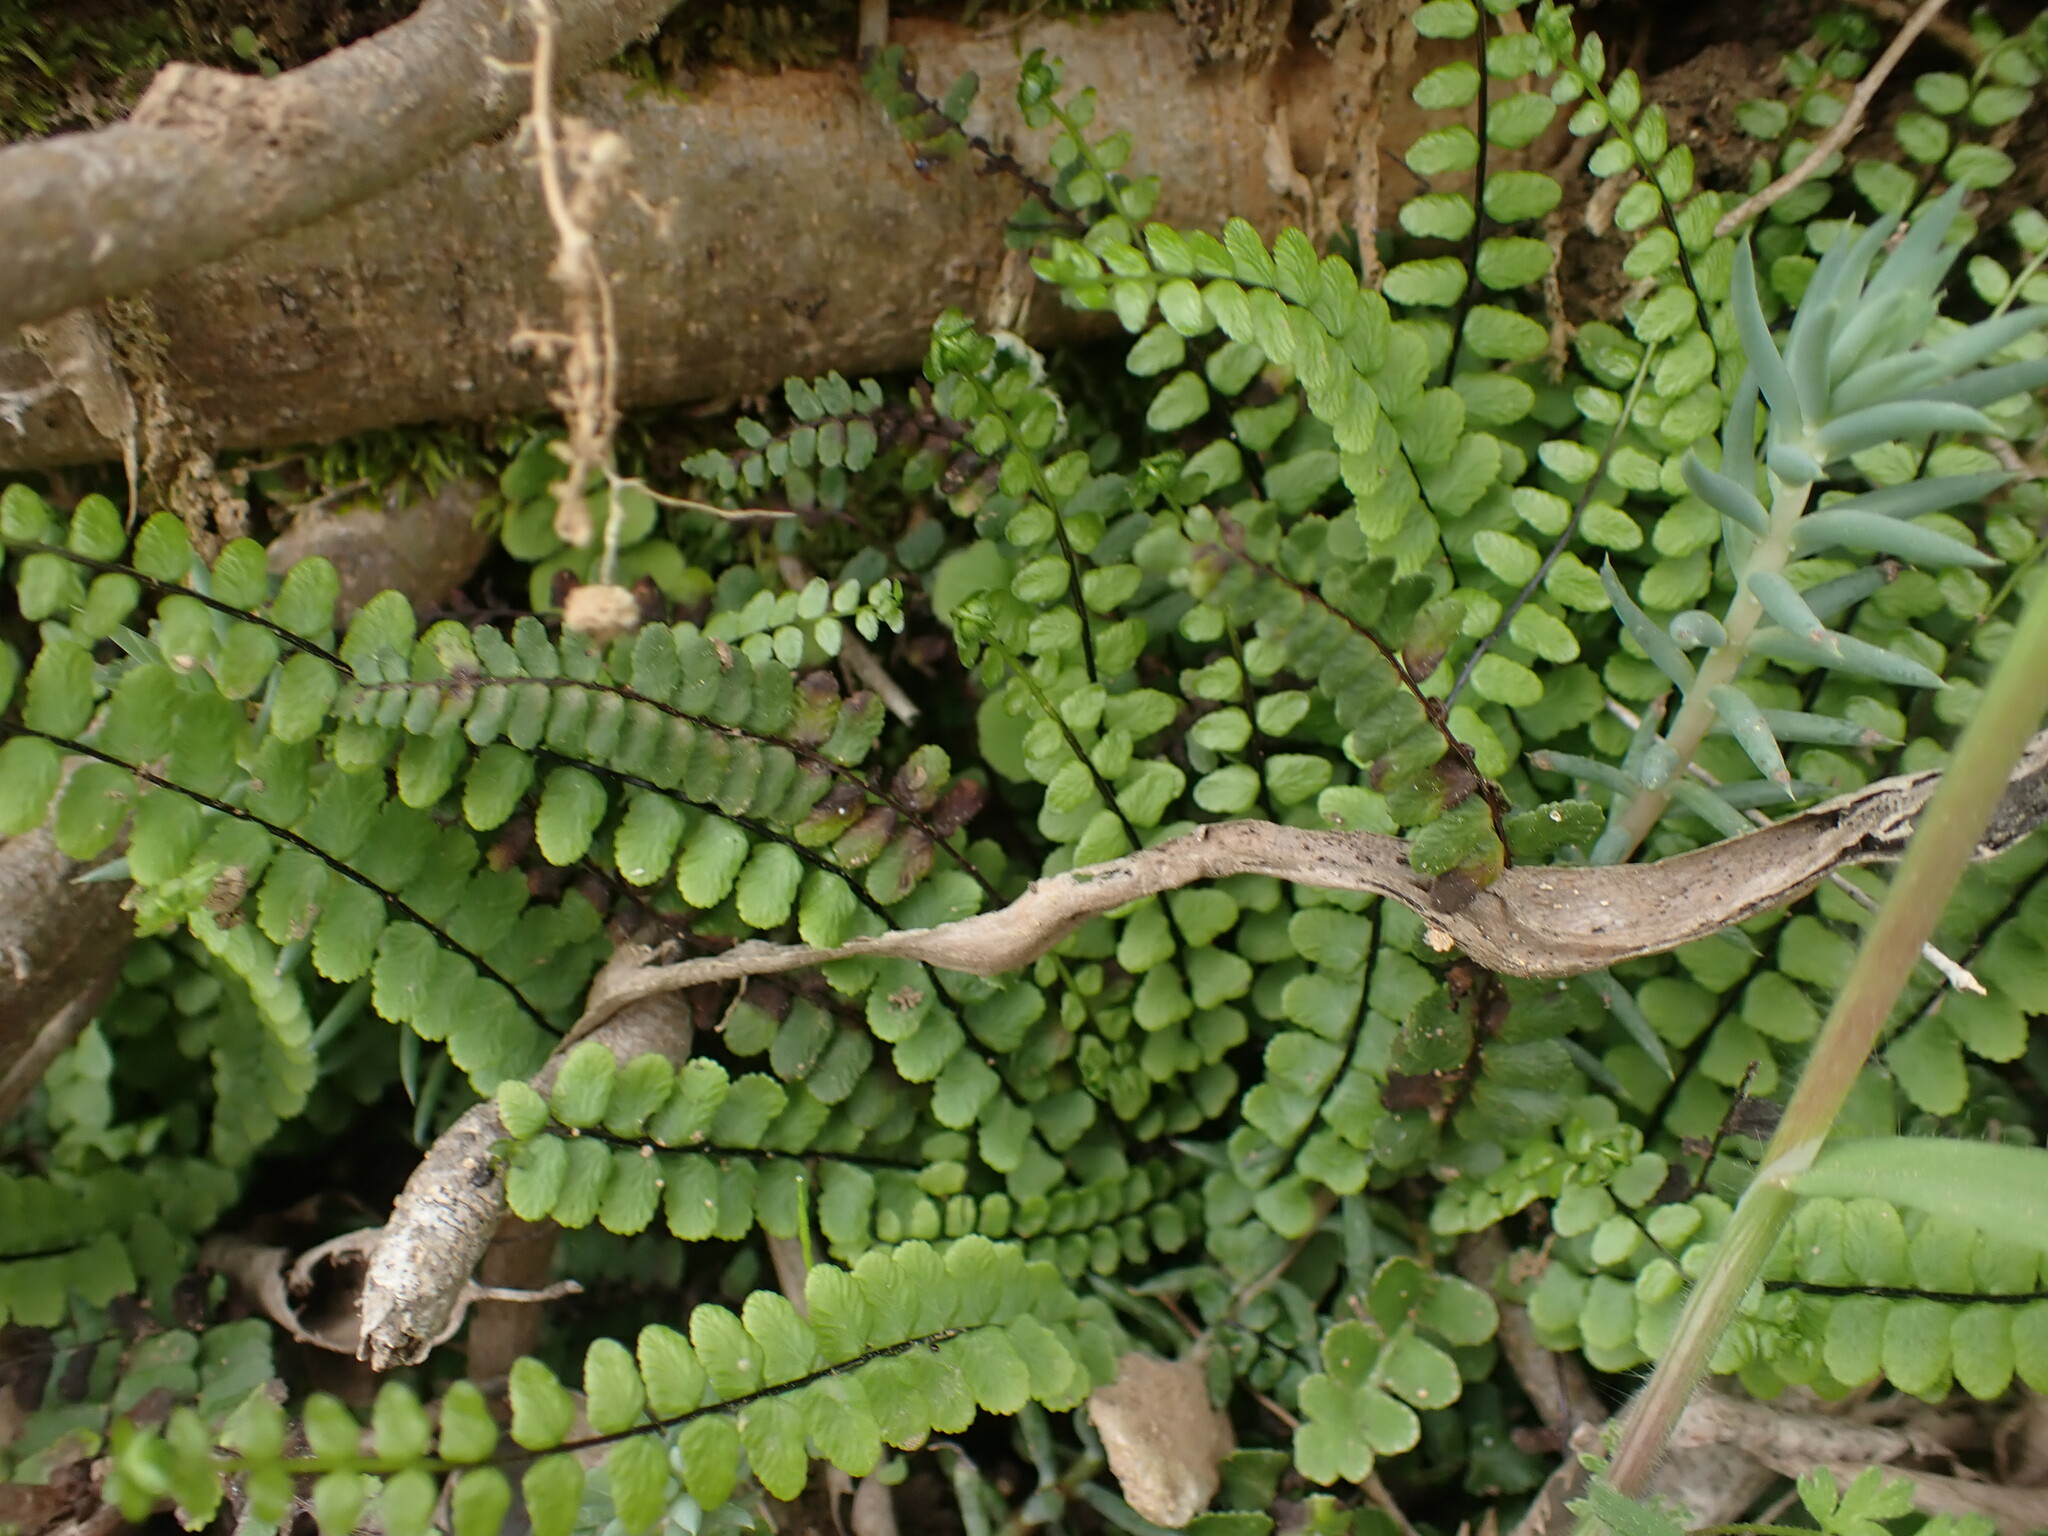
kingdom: Plantae
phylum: Tracheophyta
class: Polypodiopsida
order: Polypodiales
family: Aspleniaceae
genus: Asplenium
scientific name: Asplenium trichomanes
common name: Maidenhair spleenwort
